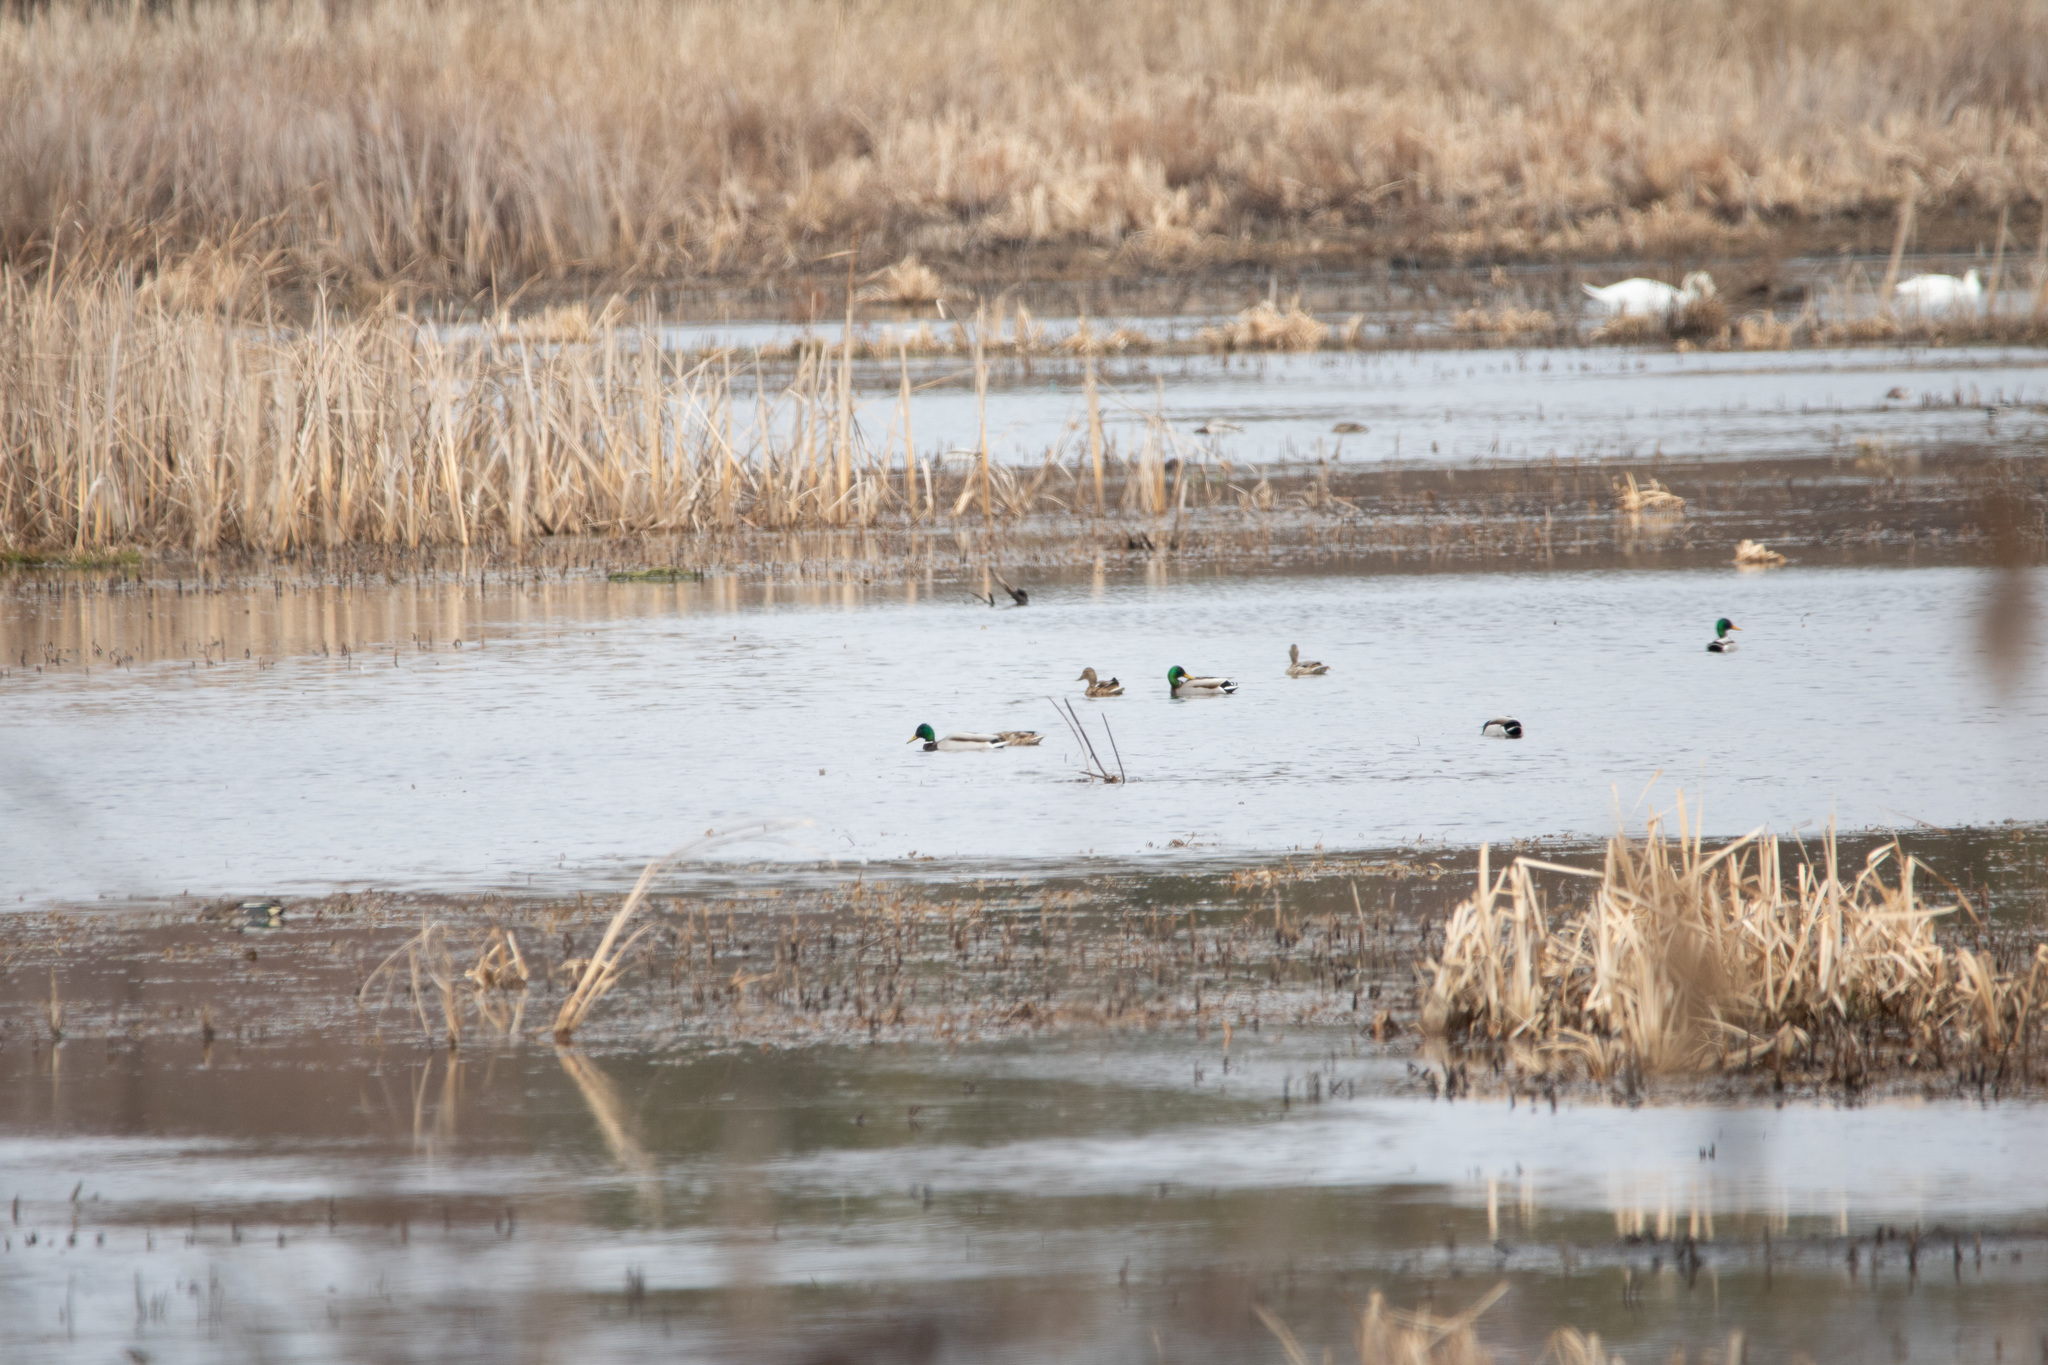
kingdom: Animalia
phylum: Chordata
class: Aves
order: Anseriformes
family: Anatidae
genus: Anas
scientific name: Anas platyrhynchos
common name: Mallard
